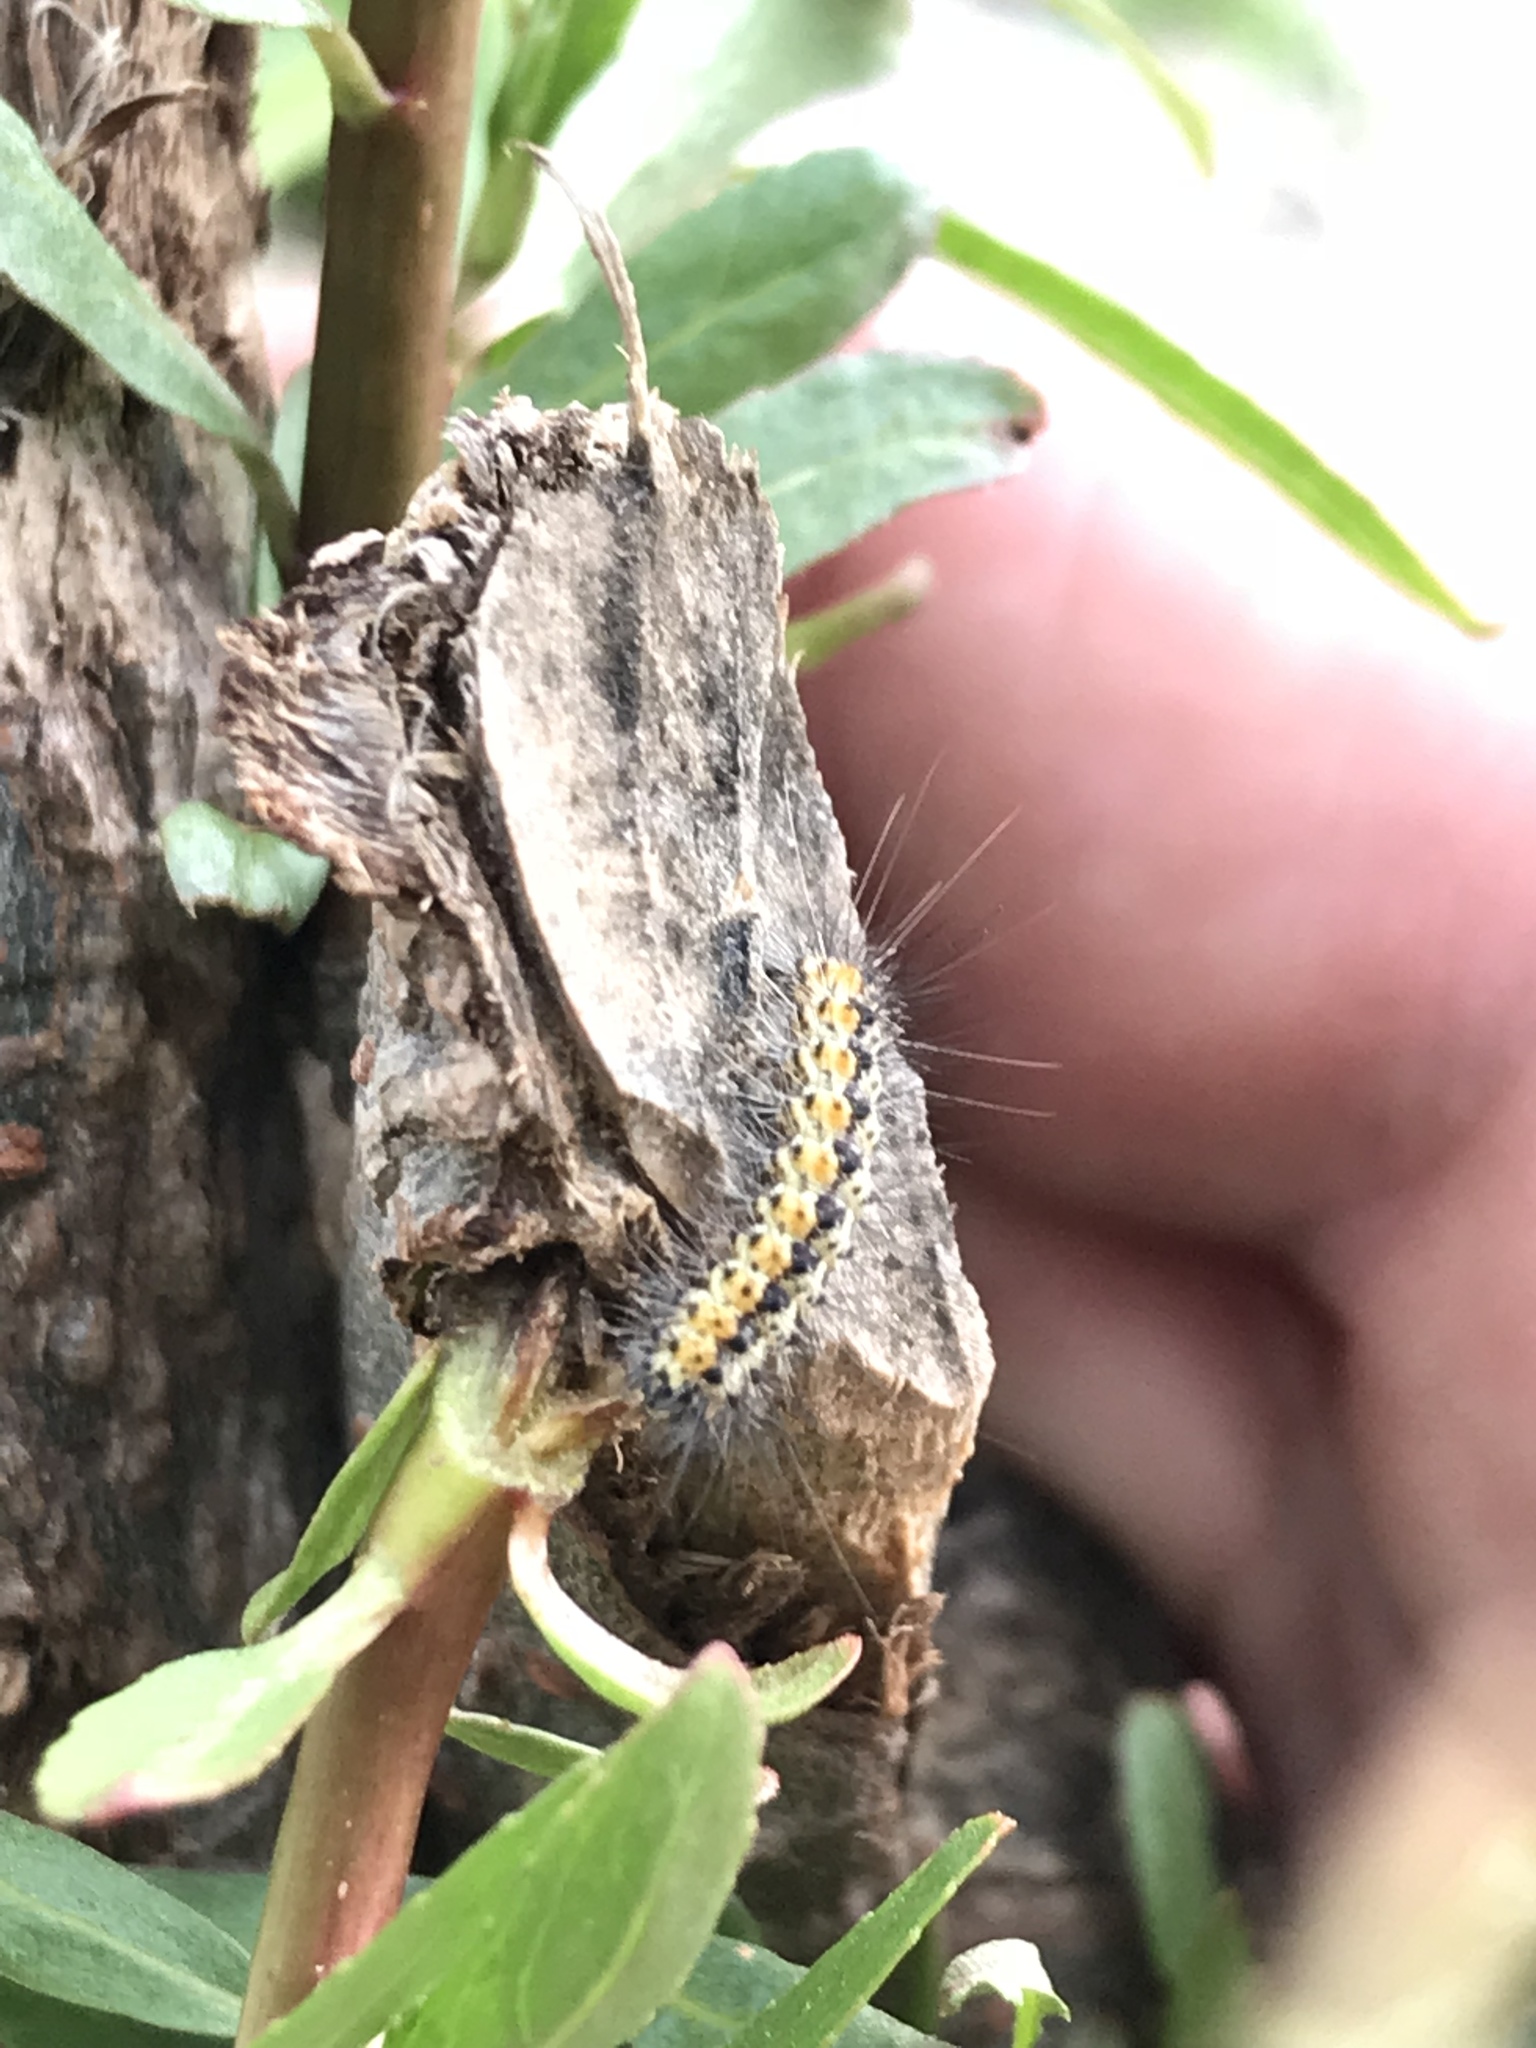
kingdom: Animalia
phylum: Arthropoda
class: Insecta
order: Lepidoptera
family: Erebidae
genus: Estigmene
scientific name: Estigmene acrea
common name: Salt marsh moth
